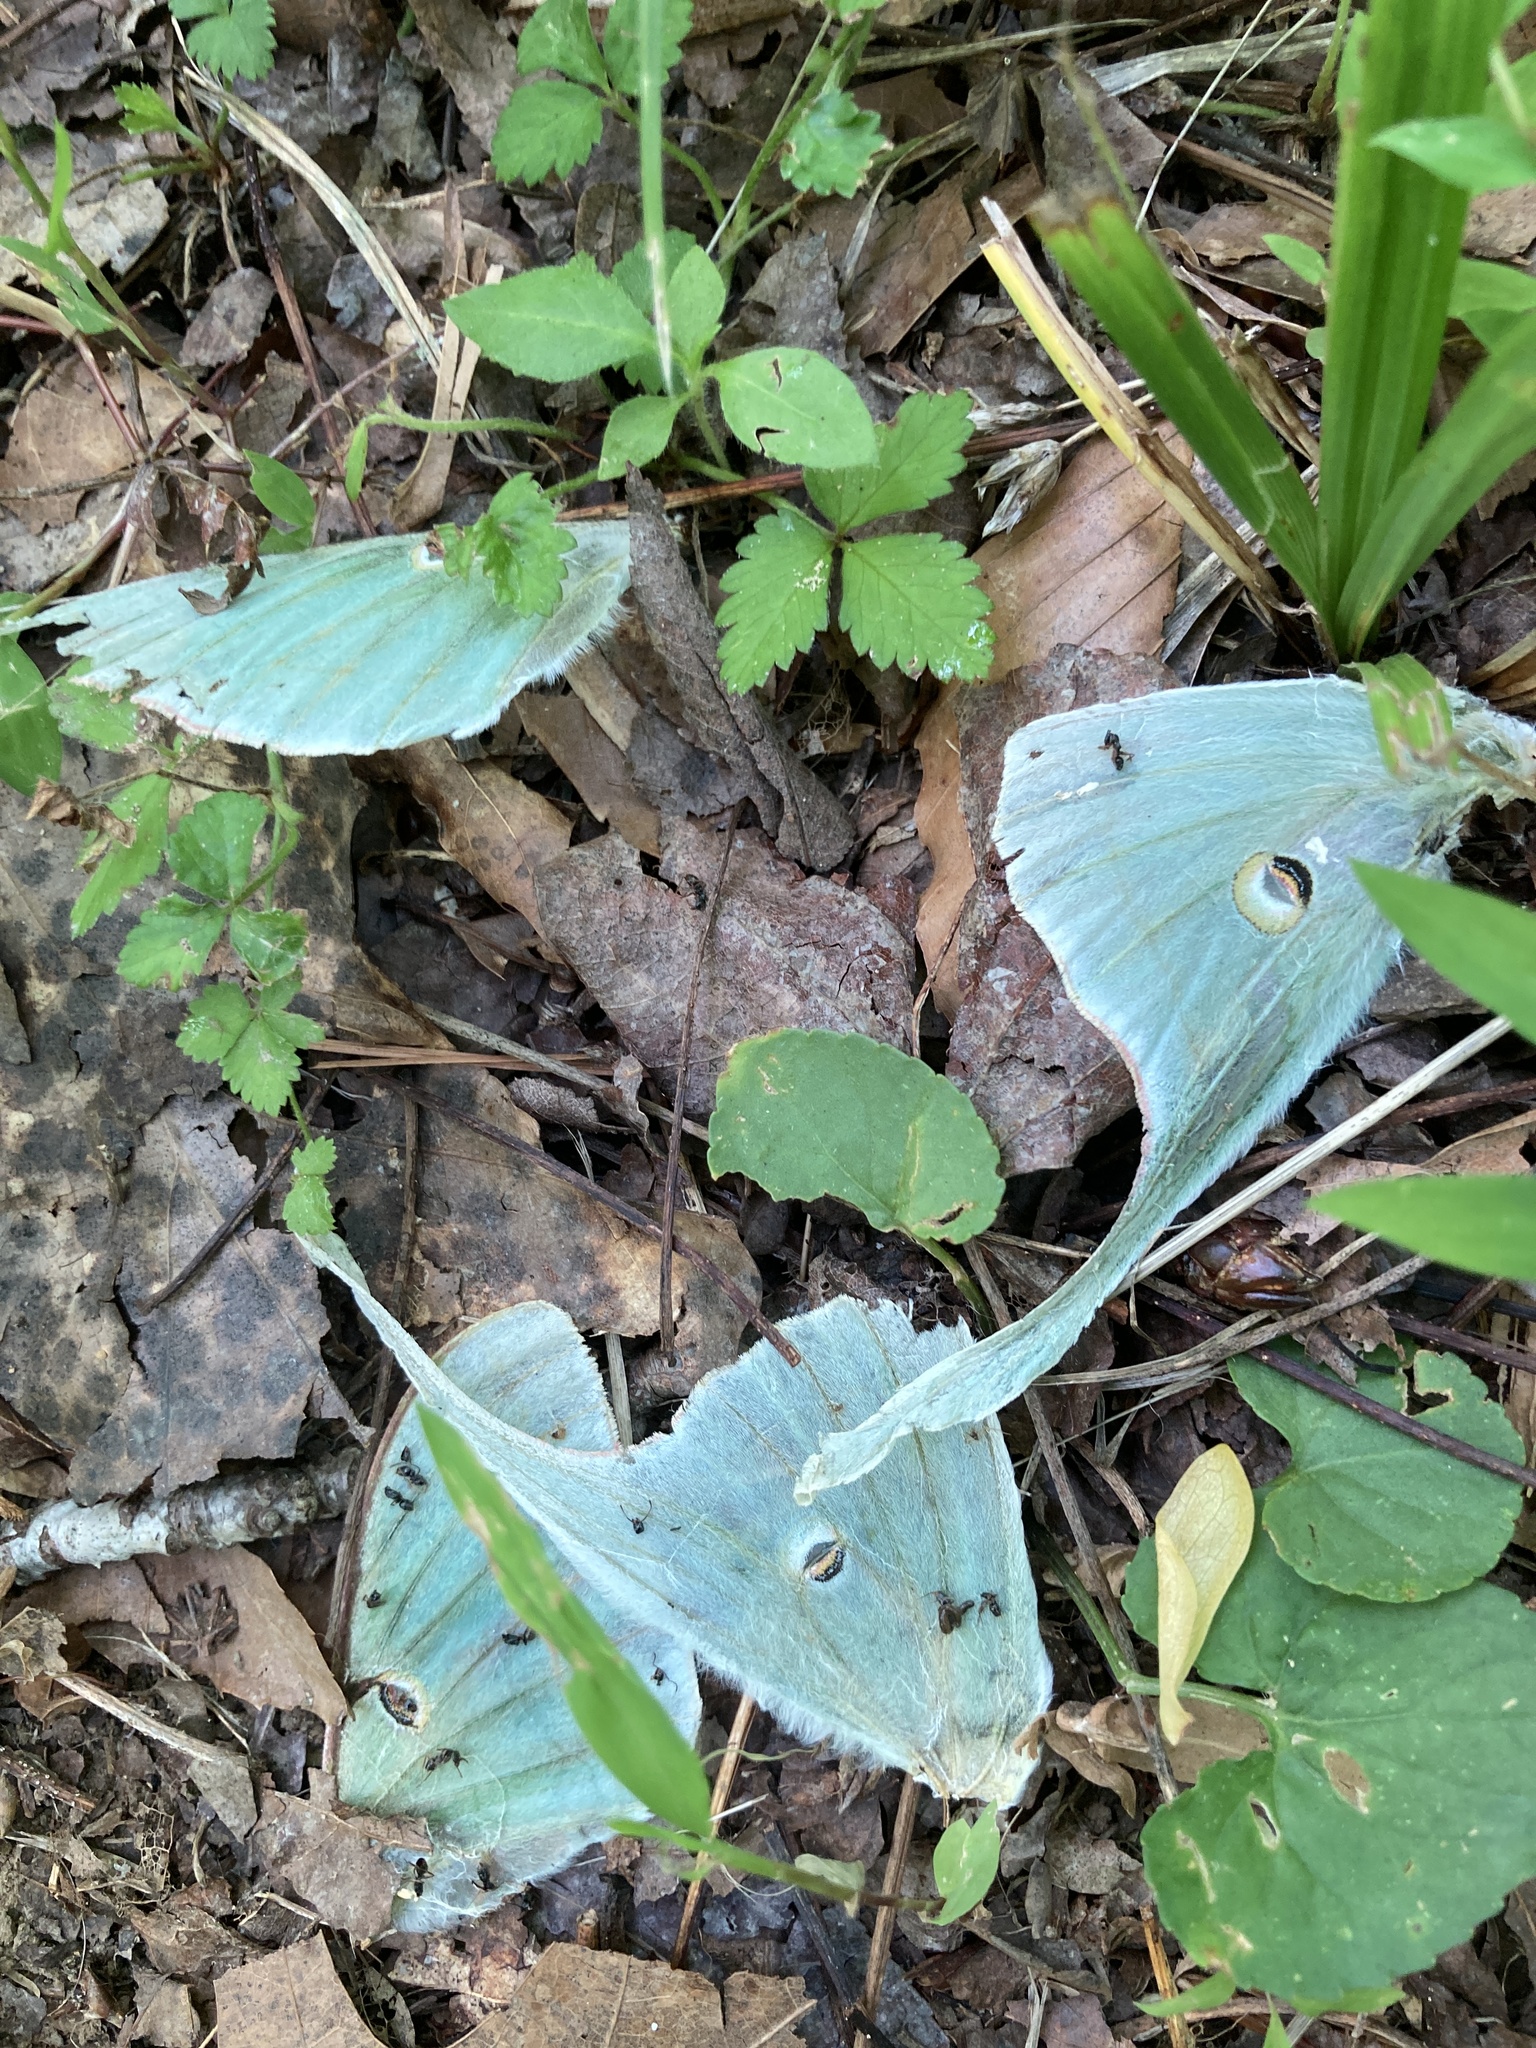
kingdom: Animalia
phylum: Arthropoda
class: Insecta
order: Lepidoptera
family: Saturniidae
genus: Actias
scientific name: Actias luna
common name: Luna moth
